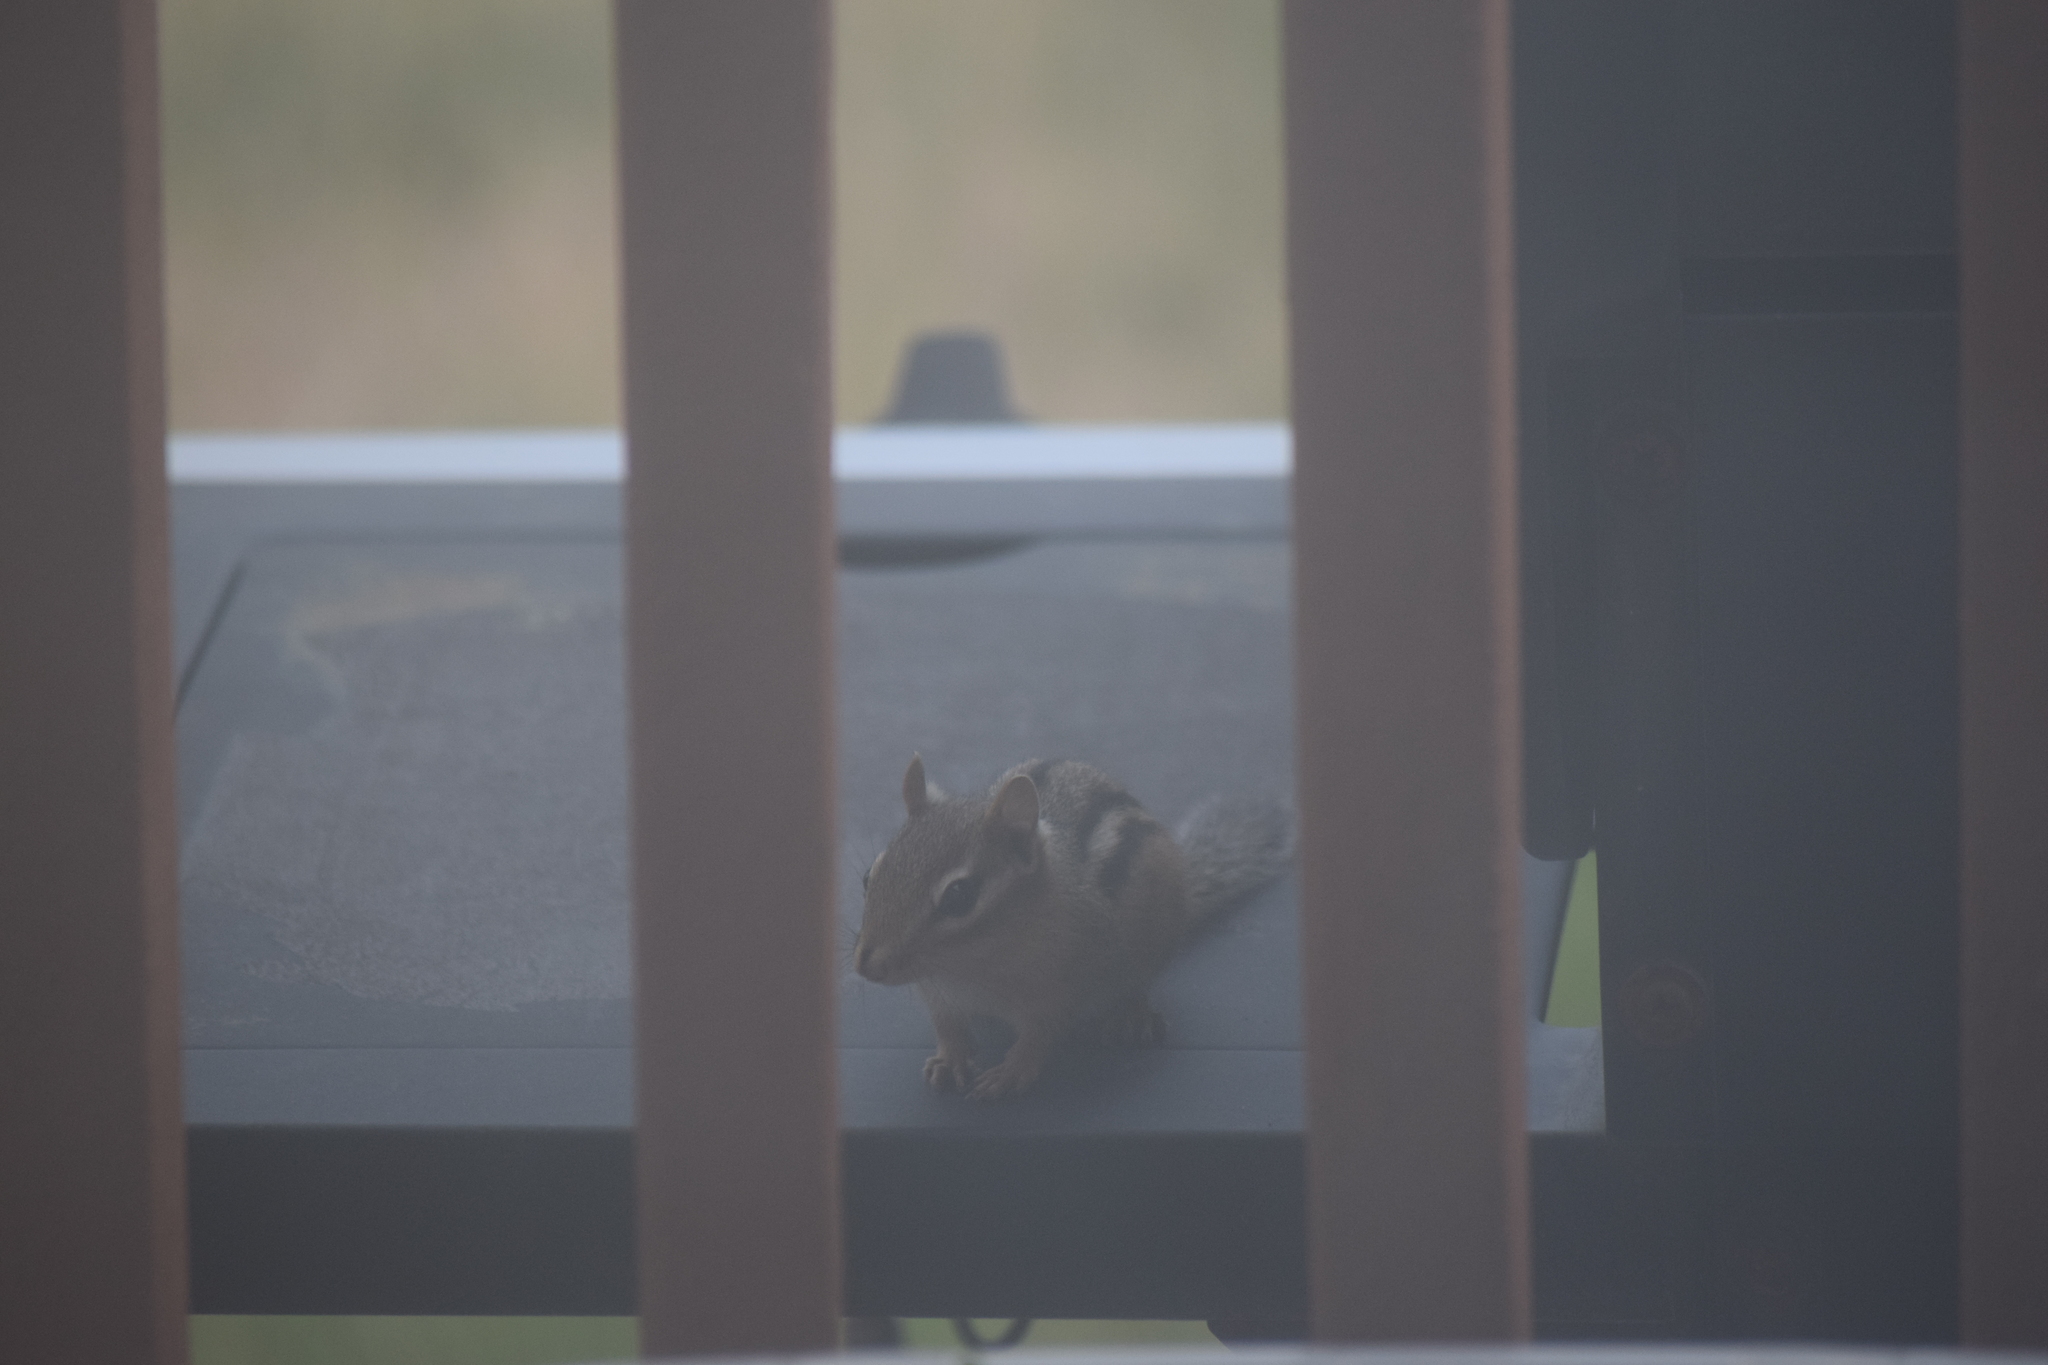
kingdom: Animalia
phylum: Chordata
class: Mammalia
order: Rodentia
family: Sciuridae
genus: Tamias
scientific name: Tamias striatus
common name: Eastern chipmunk
